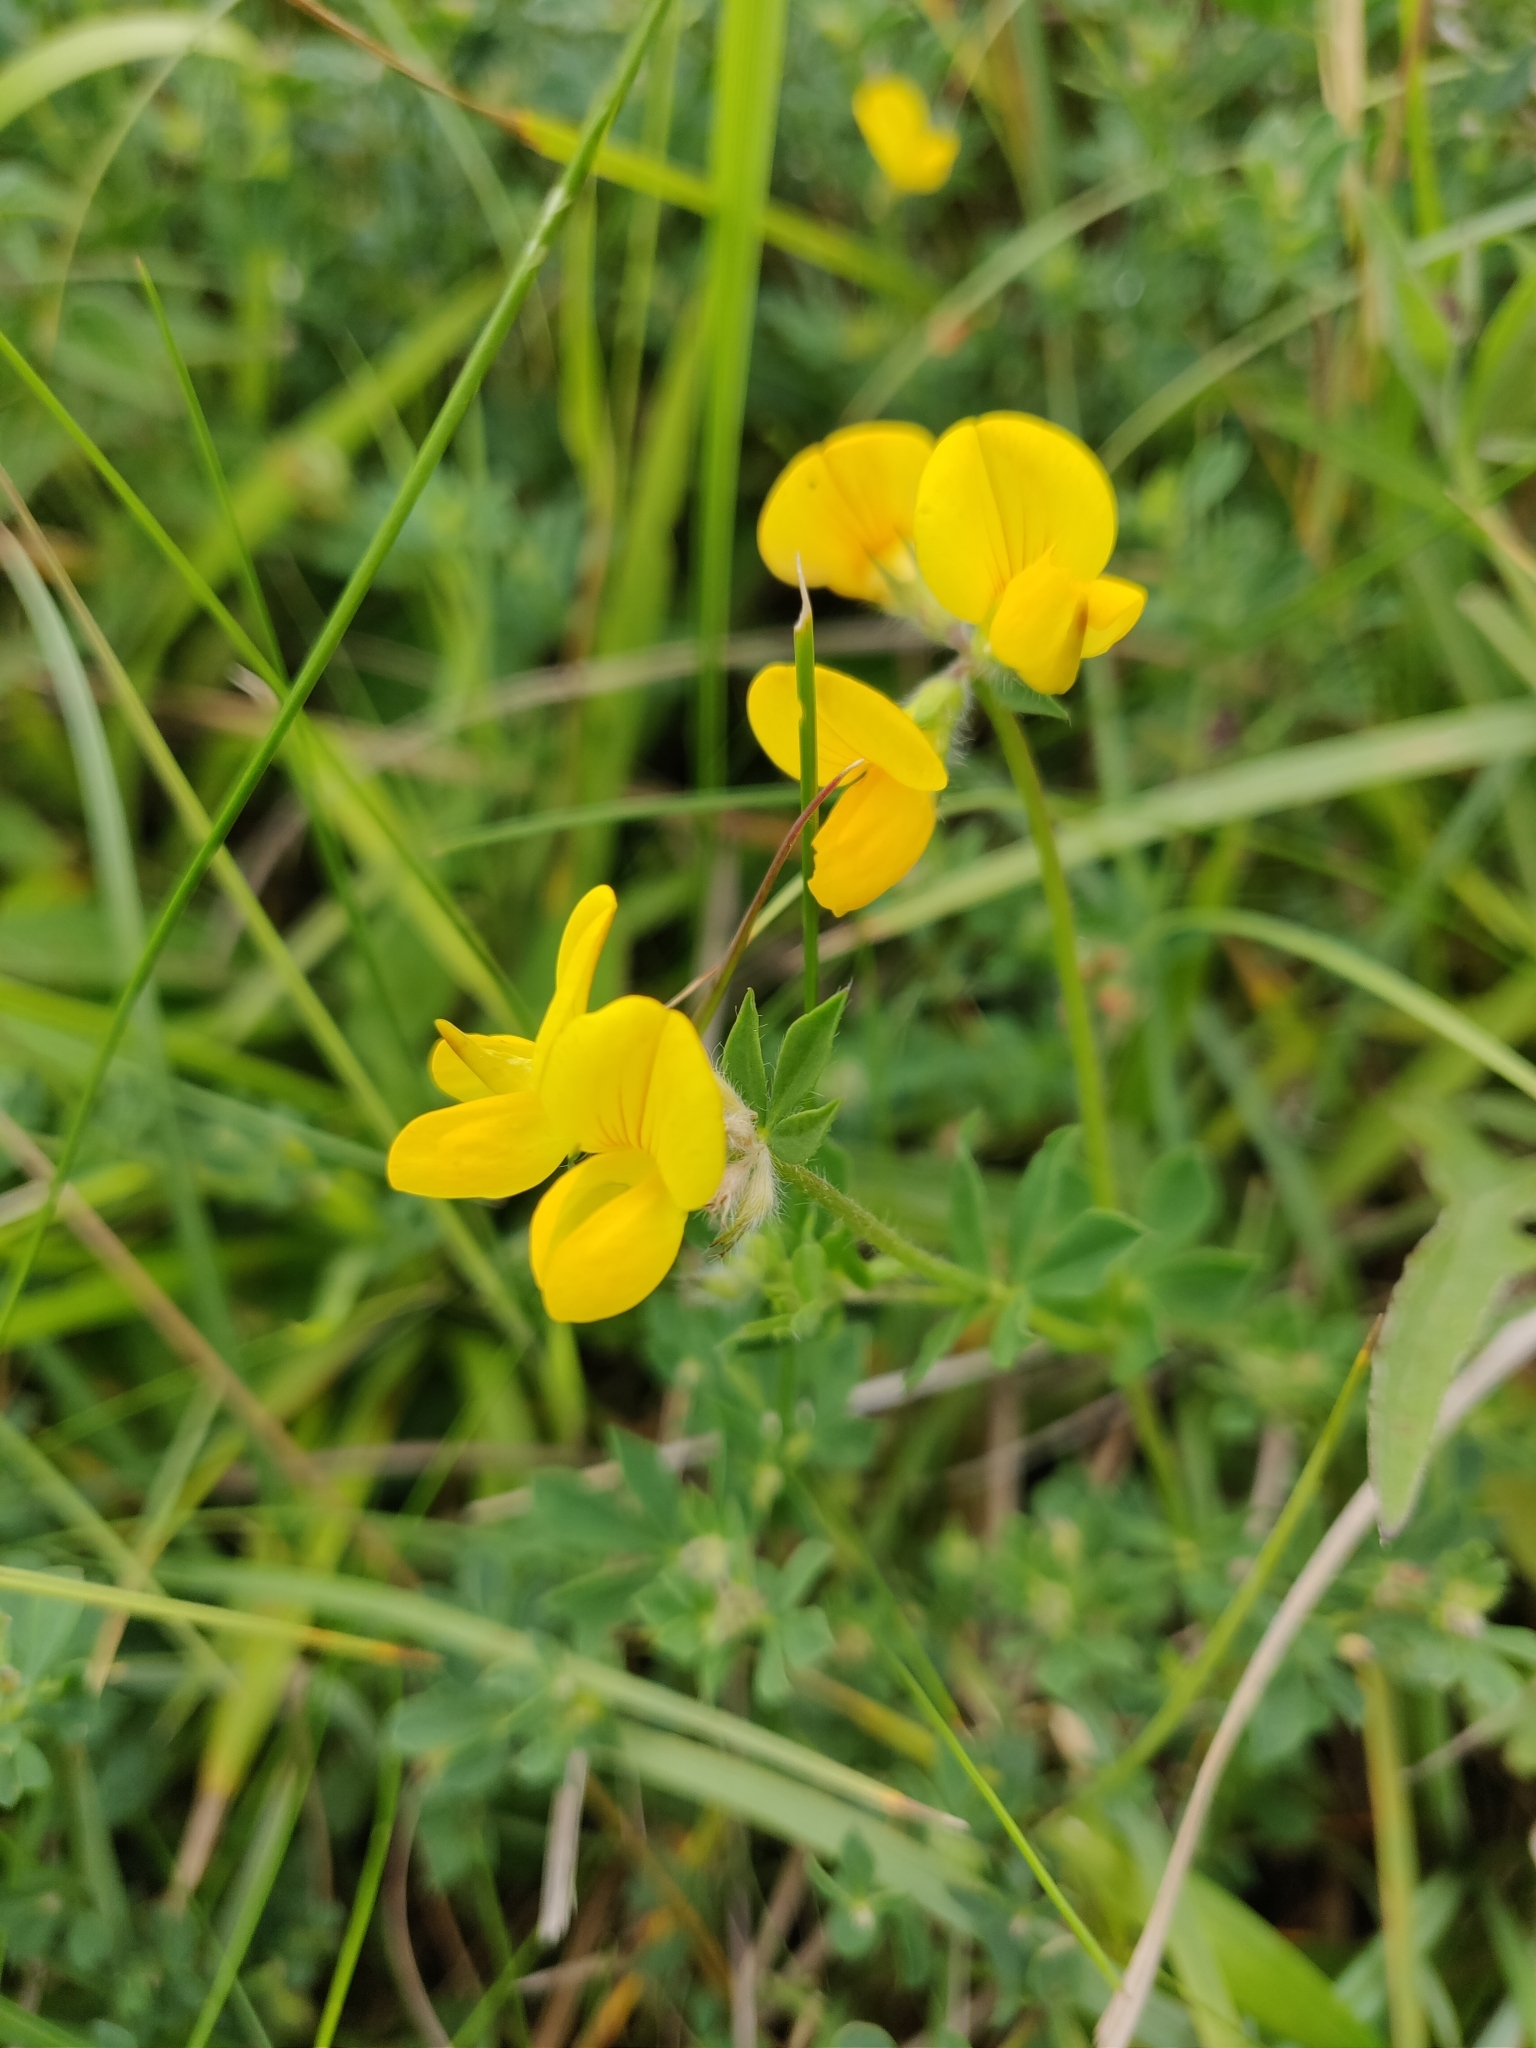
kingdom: Plantae
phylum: Tracheophyta
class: Magnoliopsida
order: Fabales
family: Fabaceae
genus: Lotus
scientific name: Lotus corniculatus
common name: Common bird's-foot-trefoil
